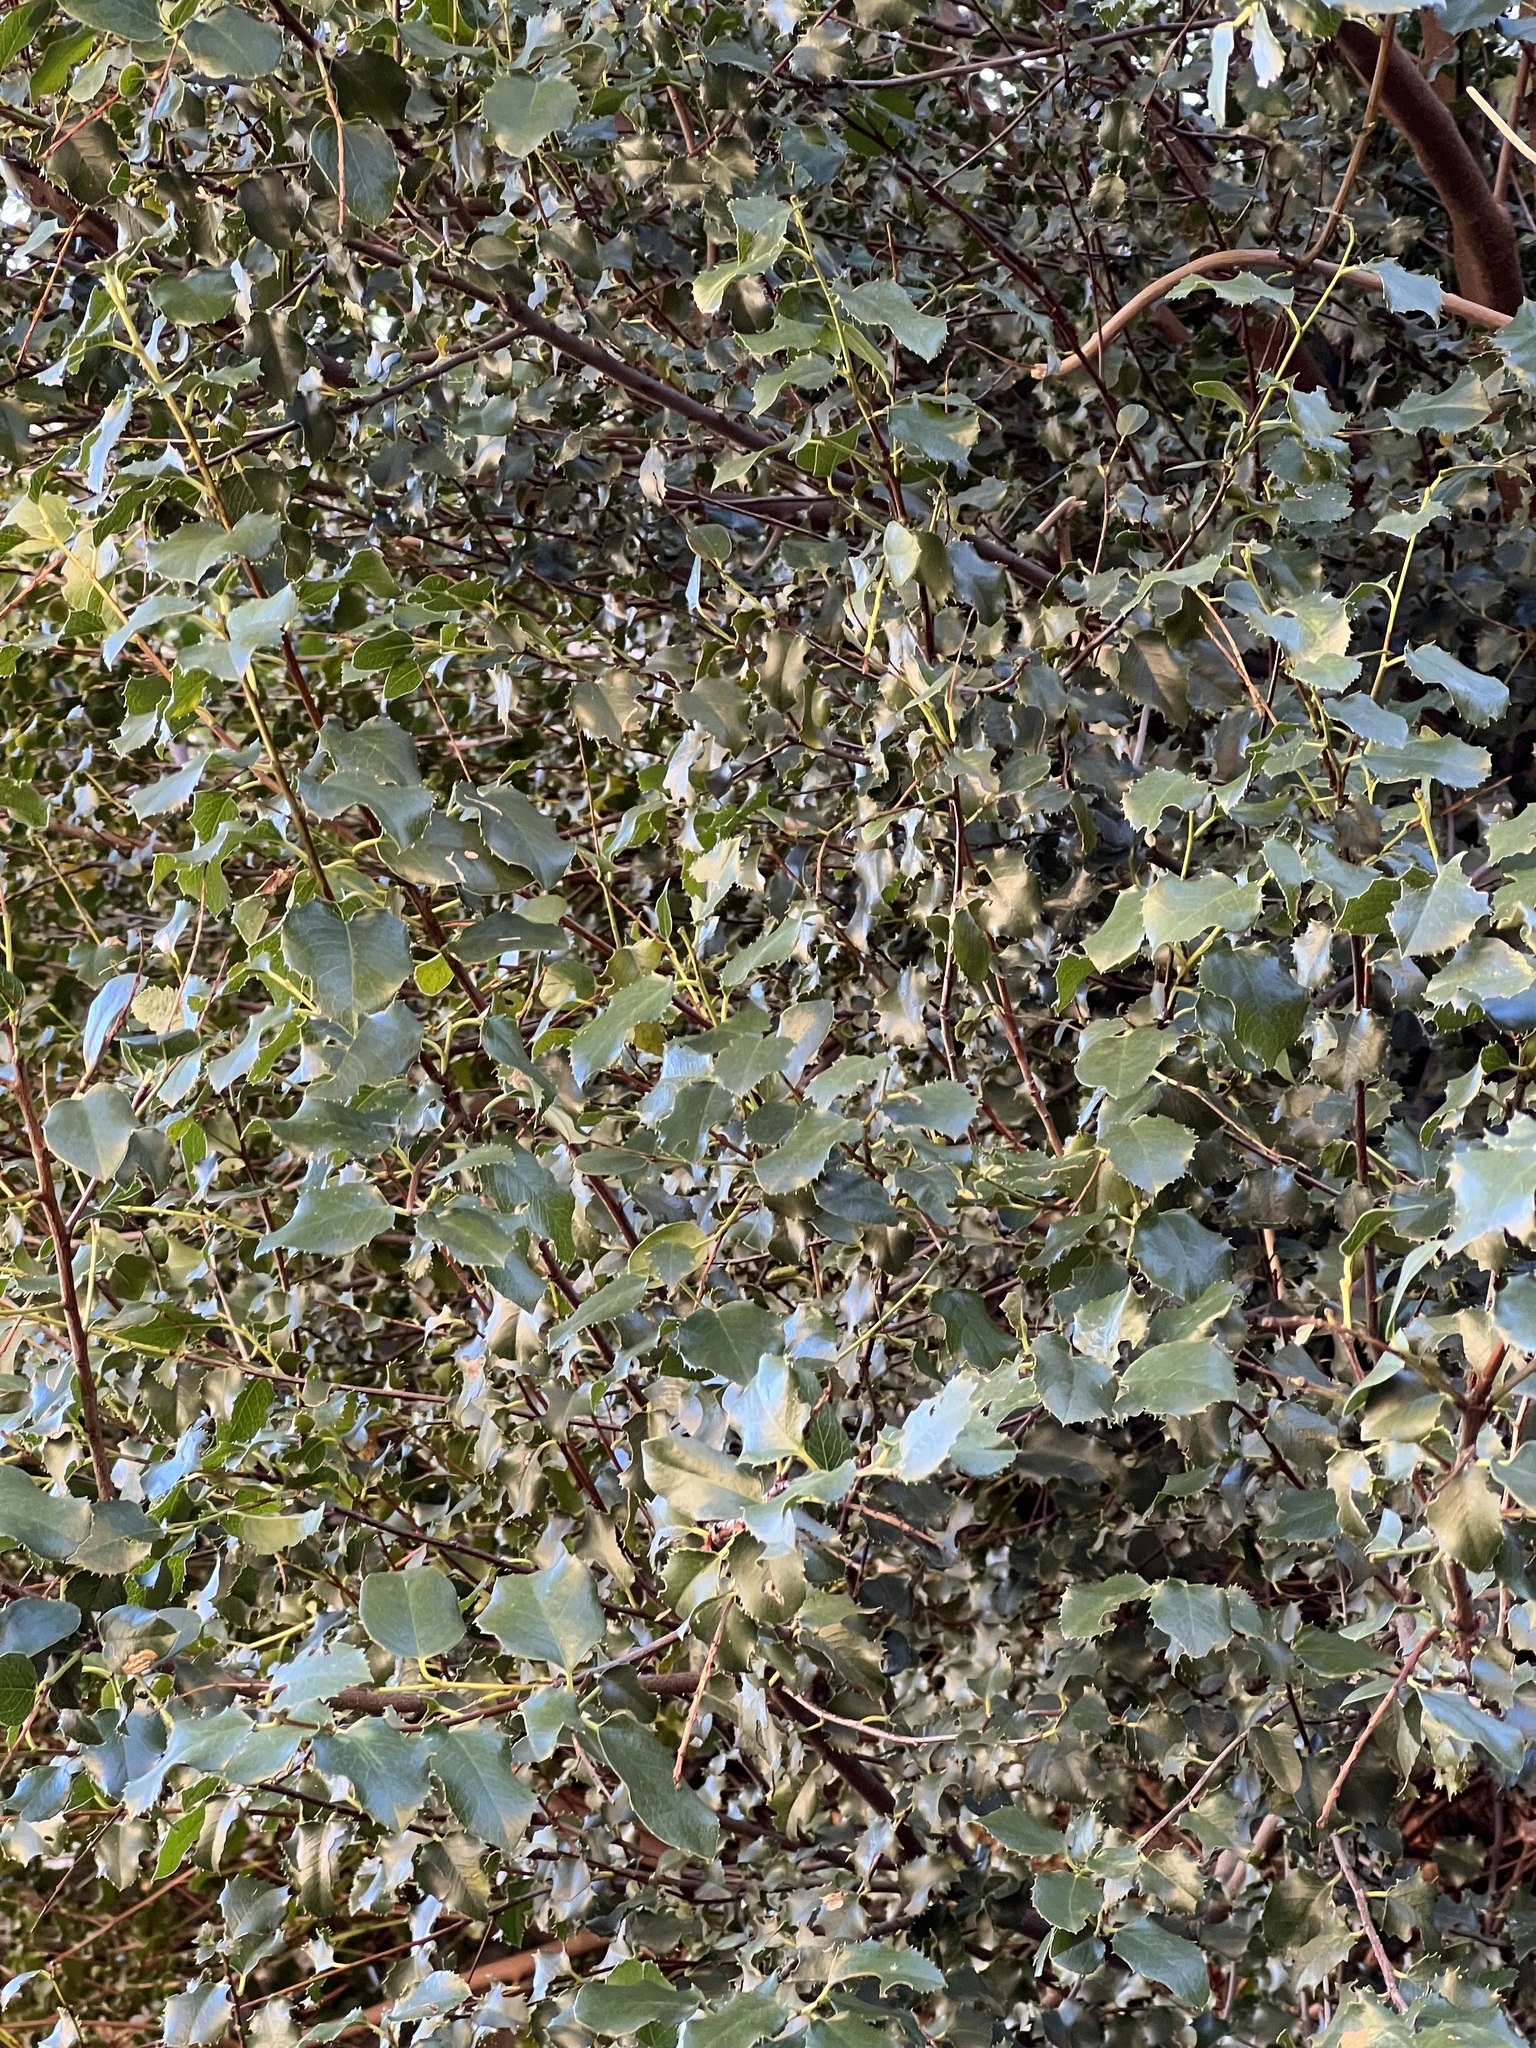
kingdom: Plantae
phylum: Tracheophyta
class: Magnoliopsida
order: Rosales
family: Rosaceae
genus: Prunus
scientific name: Prunus ilicifolia
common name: Hollyleaf cherry
